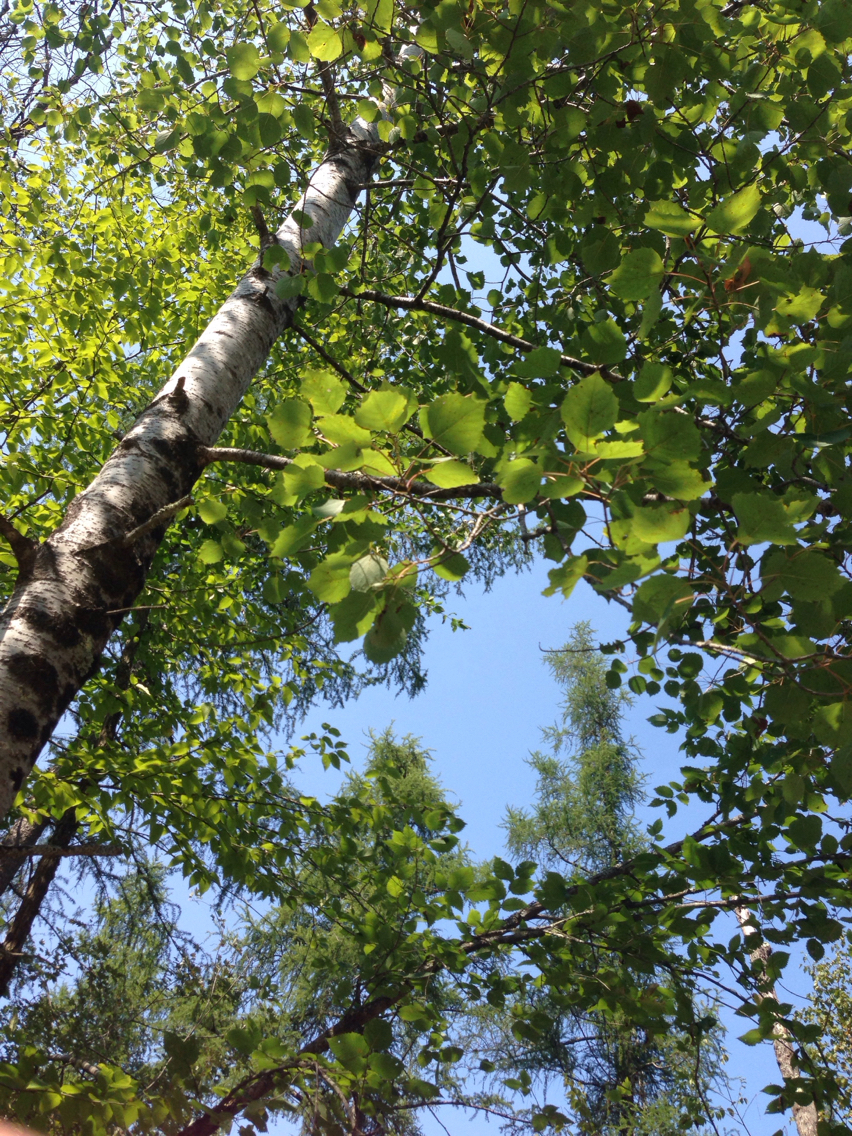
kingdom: Plantae
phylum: Tracheophyta
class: Magnoliopsida
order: Malpighiales
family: Salicaceae
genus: Populus
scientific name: Populus grandidentata
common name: Bigtooth aspen
